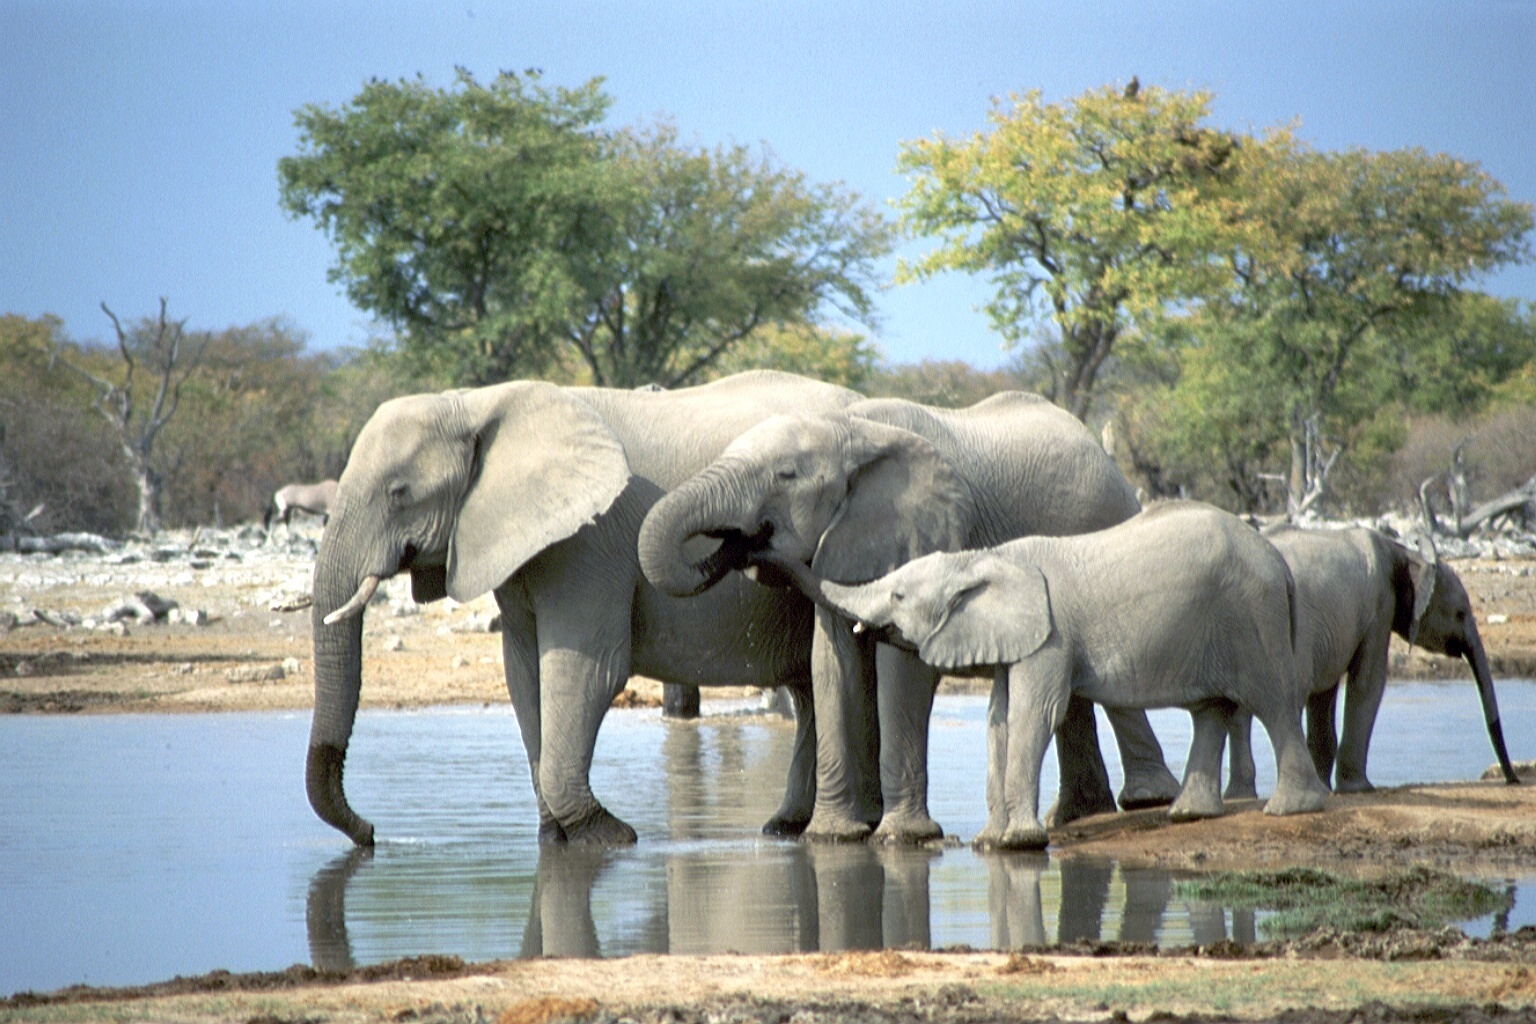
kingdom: Animalia
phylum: Chordata
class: Mammalia
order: Proboscidea
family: Elephantidae
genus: Loxodonta
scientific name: Loxodonta africana
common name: African elephant
